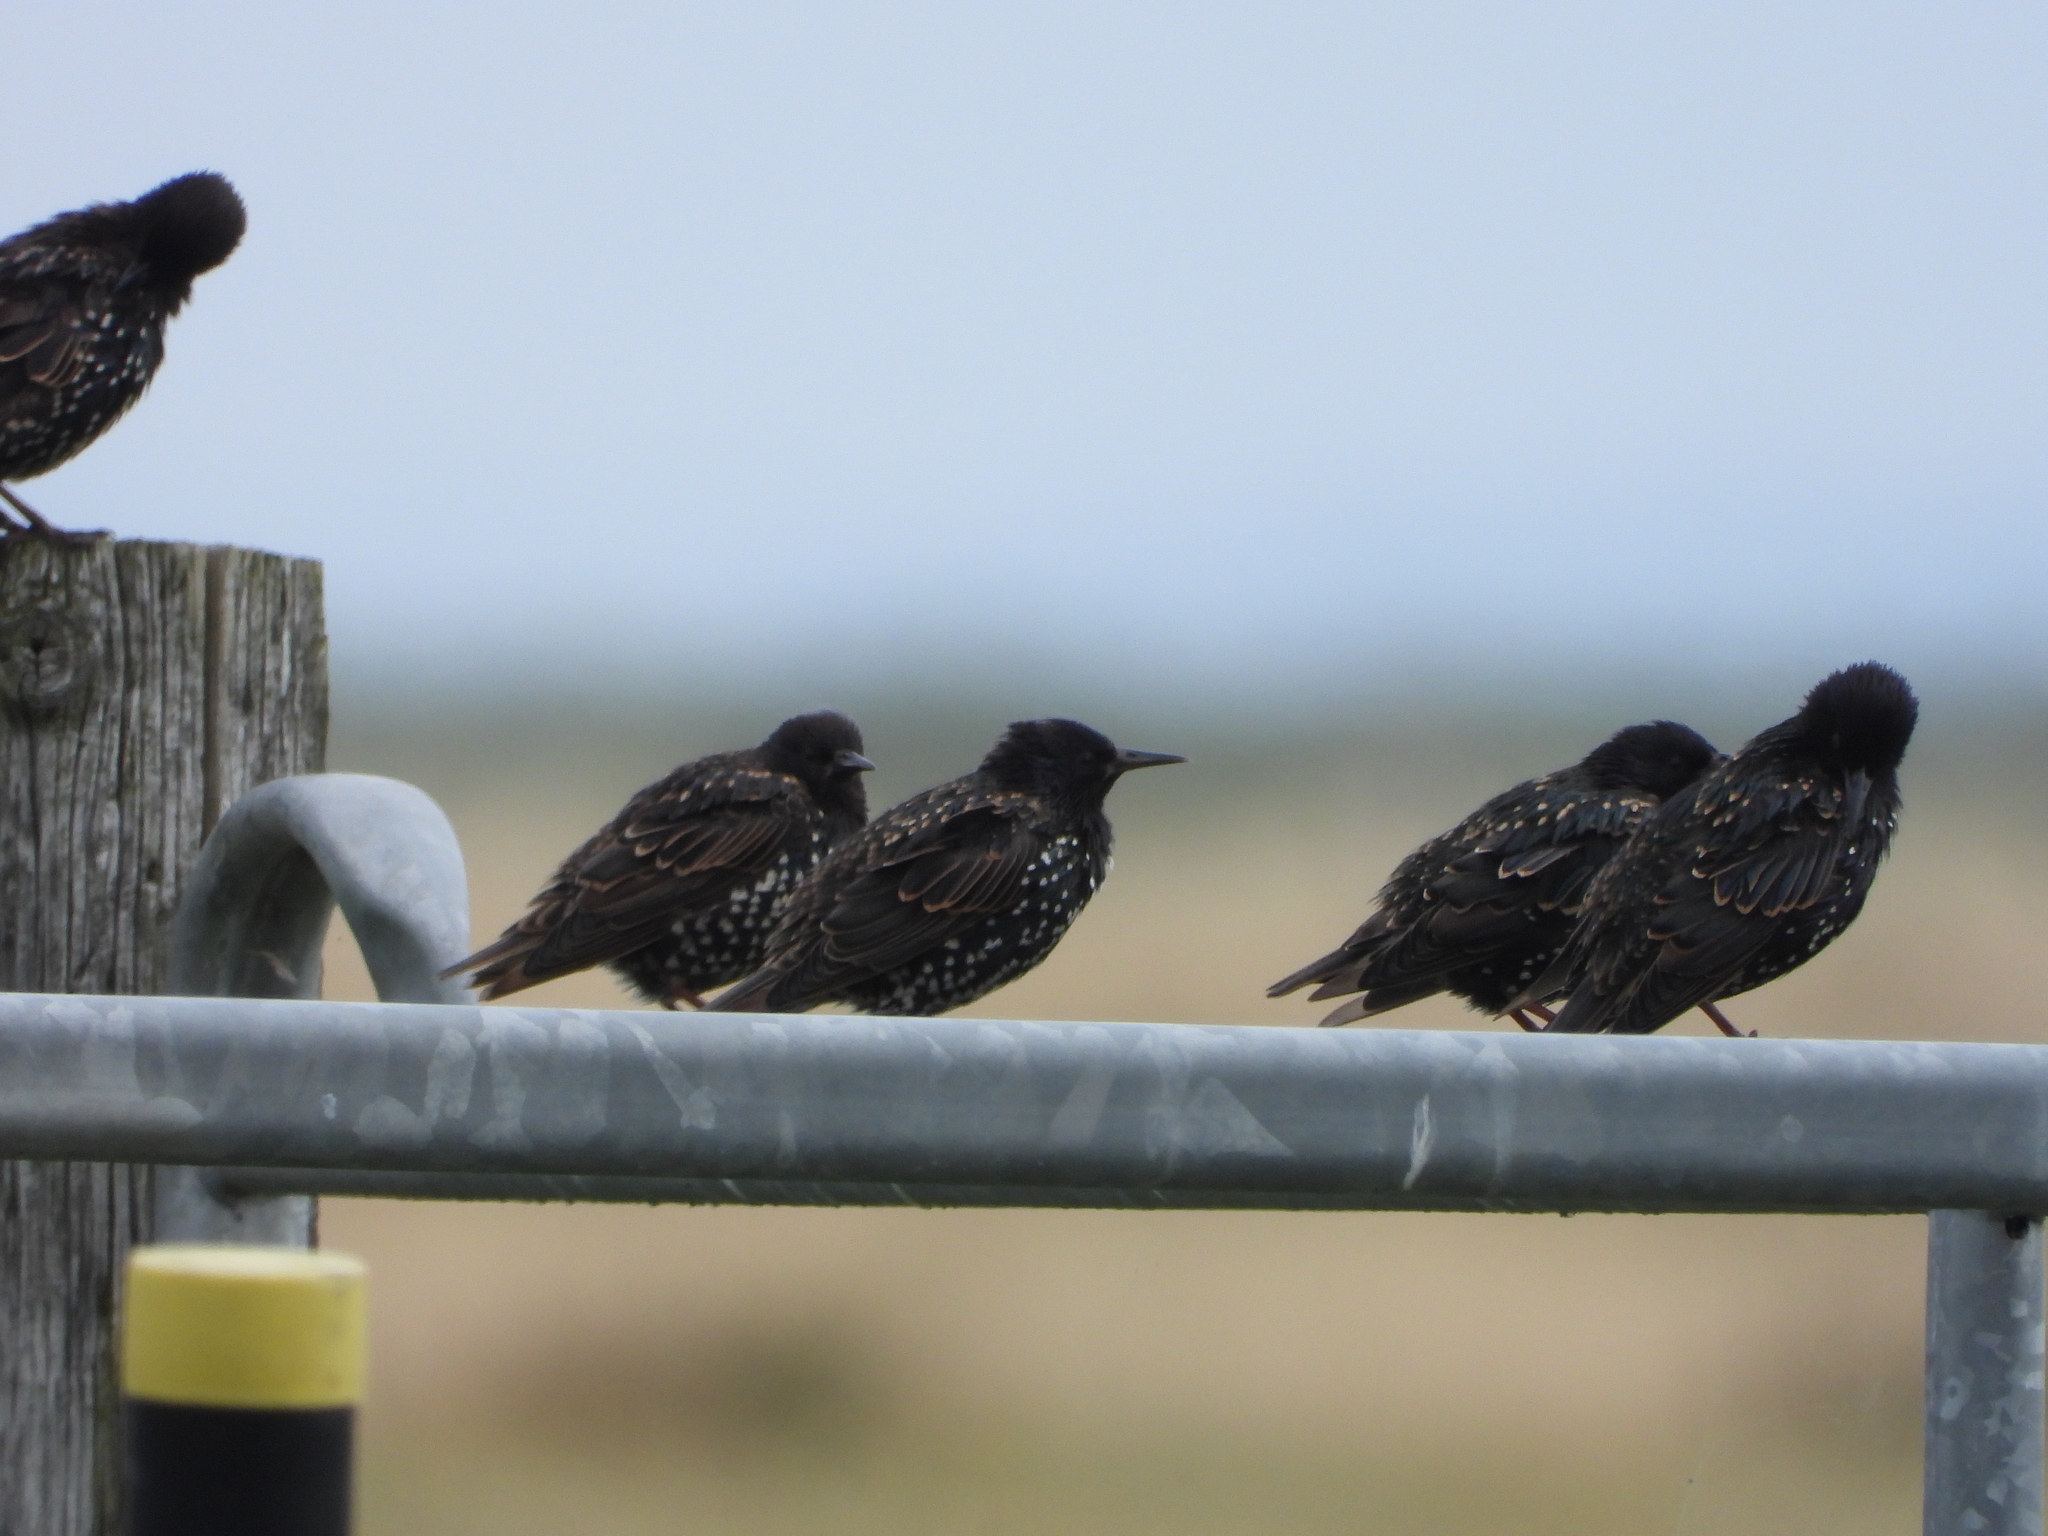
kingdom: Animalia
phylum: Chordata
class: Aves
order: Passeriformes
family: Sturnidae
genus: Sturnus
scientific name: Sturnus vulgaris
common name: Common starling
